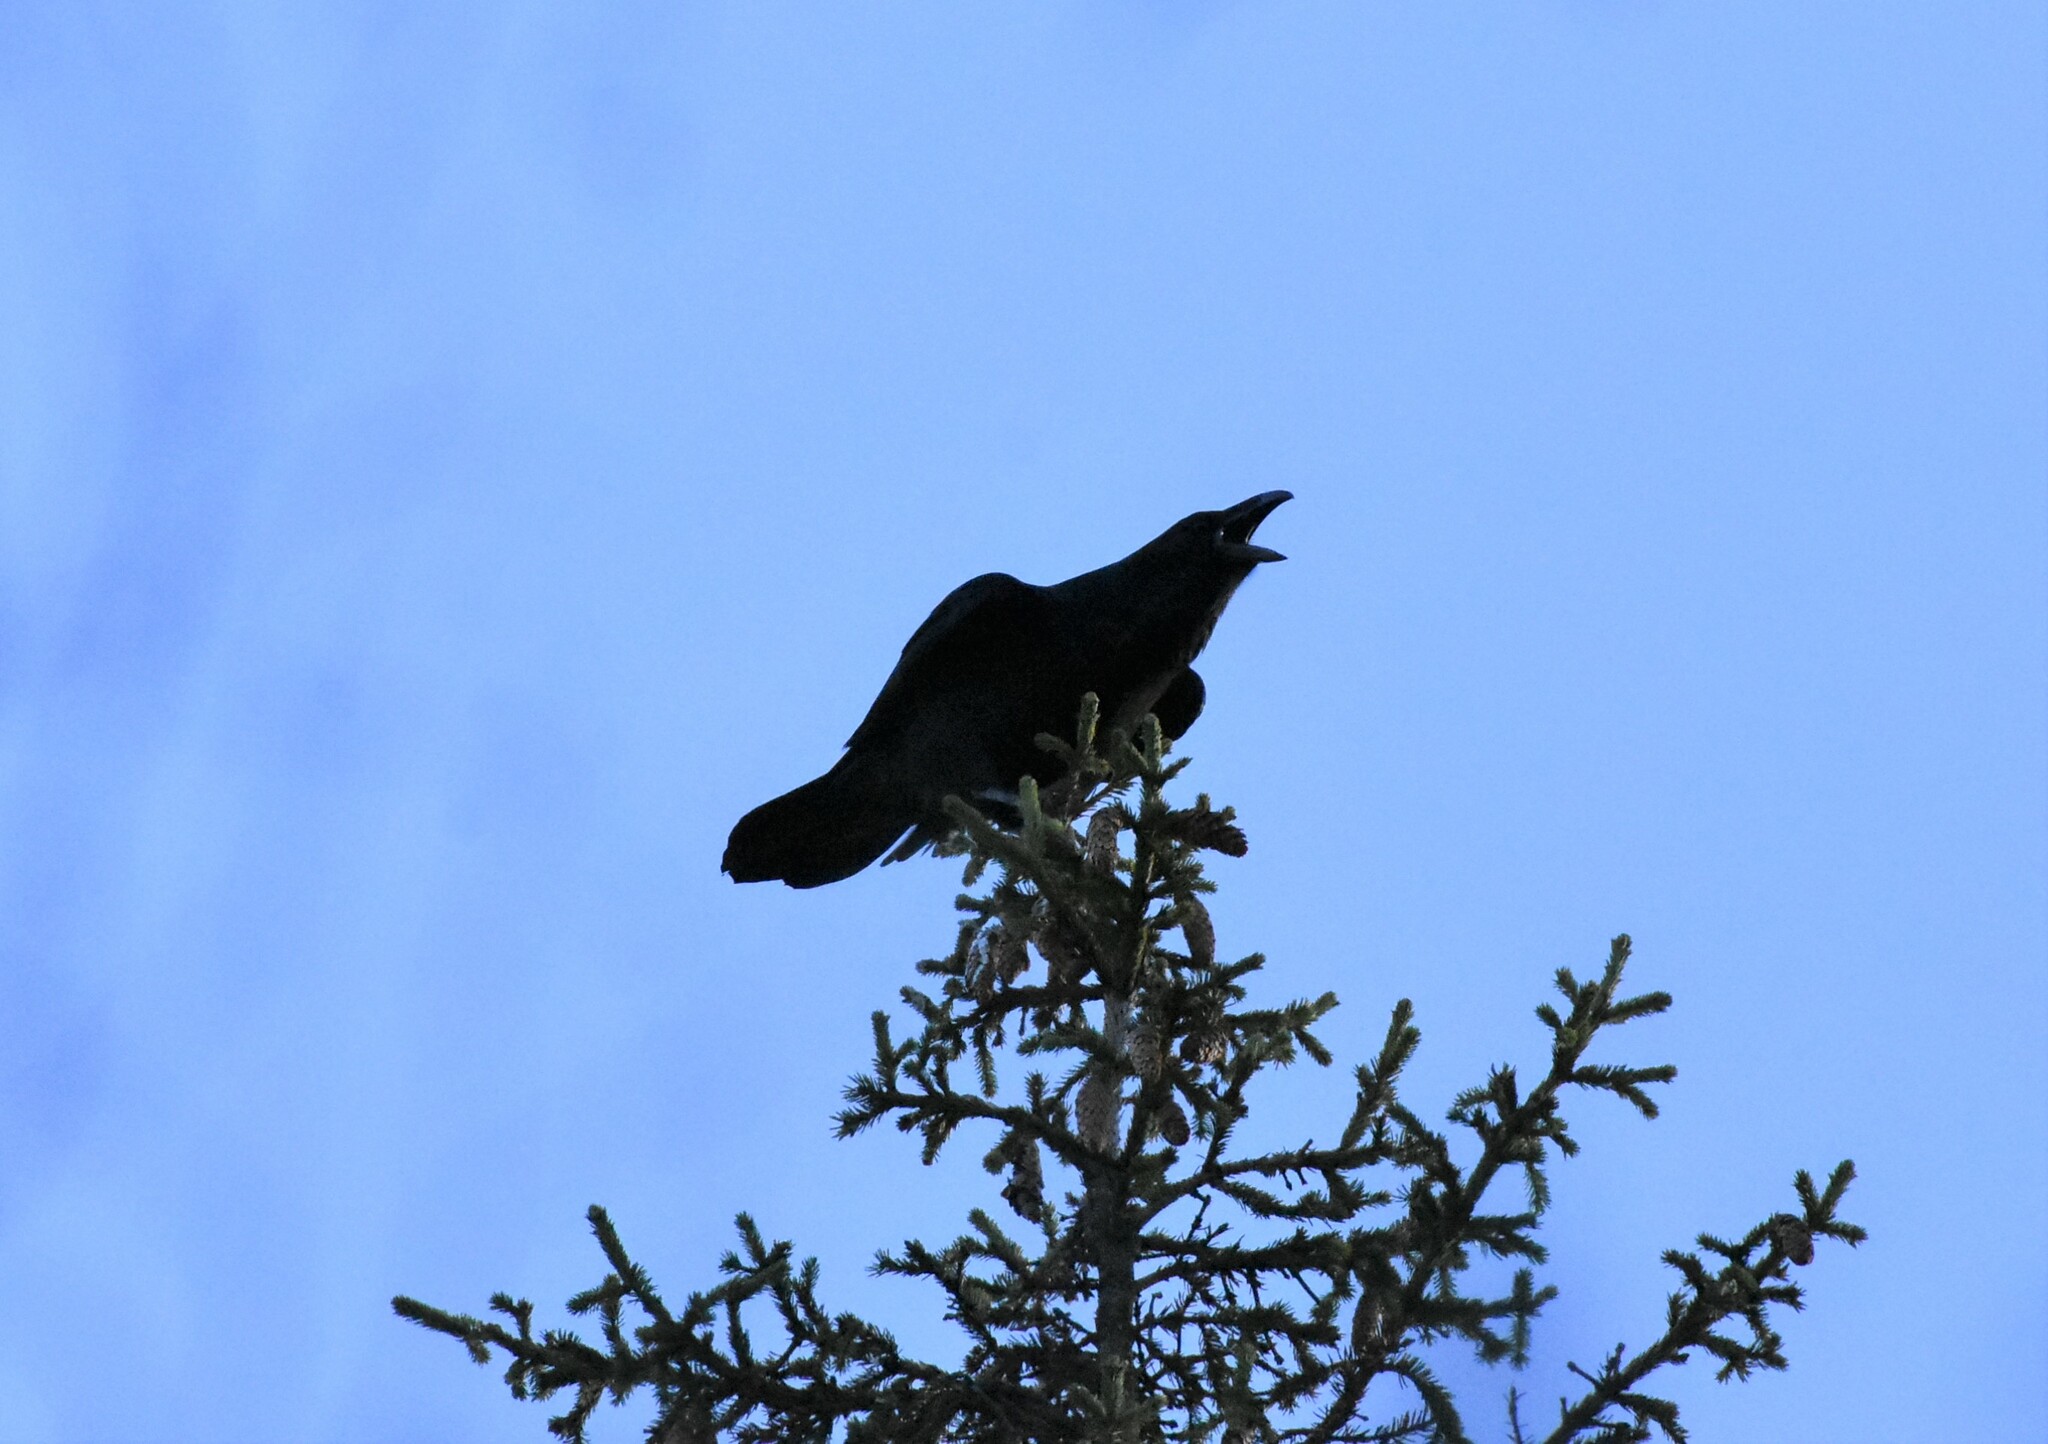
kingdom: Animalia
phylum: Chordata
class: Aves
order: Passeriformes
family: Corvidae
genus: Corvus
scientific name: Corvus corax
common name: Common raven
